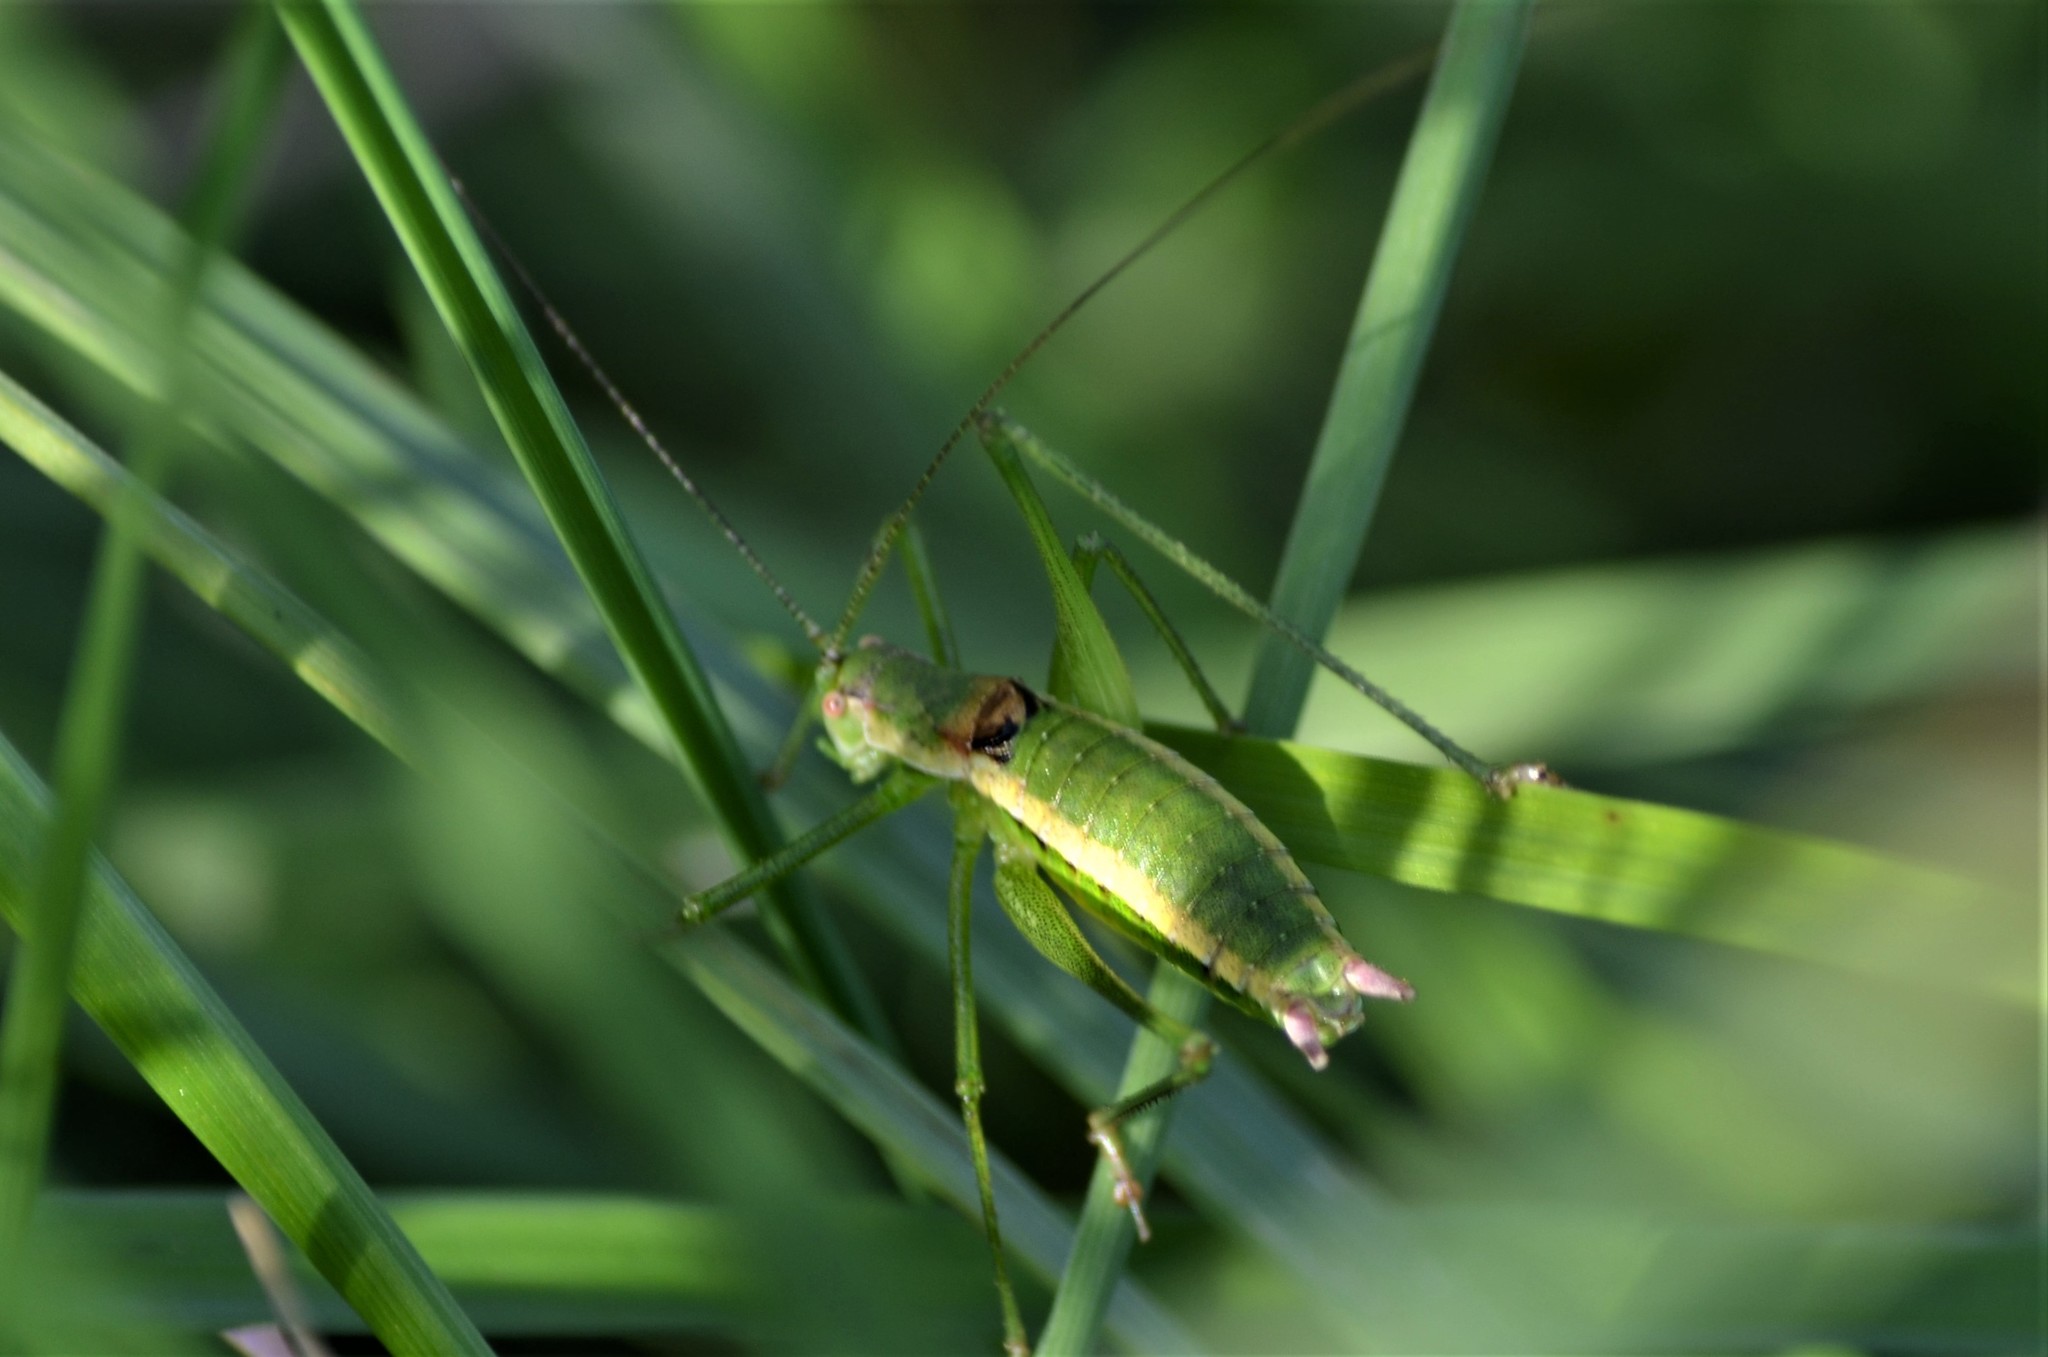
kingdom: Animalia
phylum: Arthropoda
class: Insecta
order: Orthoptera
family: Tettigoniidae
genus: Leptophyes
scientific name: Leptophyes boscii
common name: Balkan speckled bush-cricket
